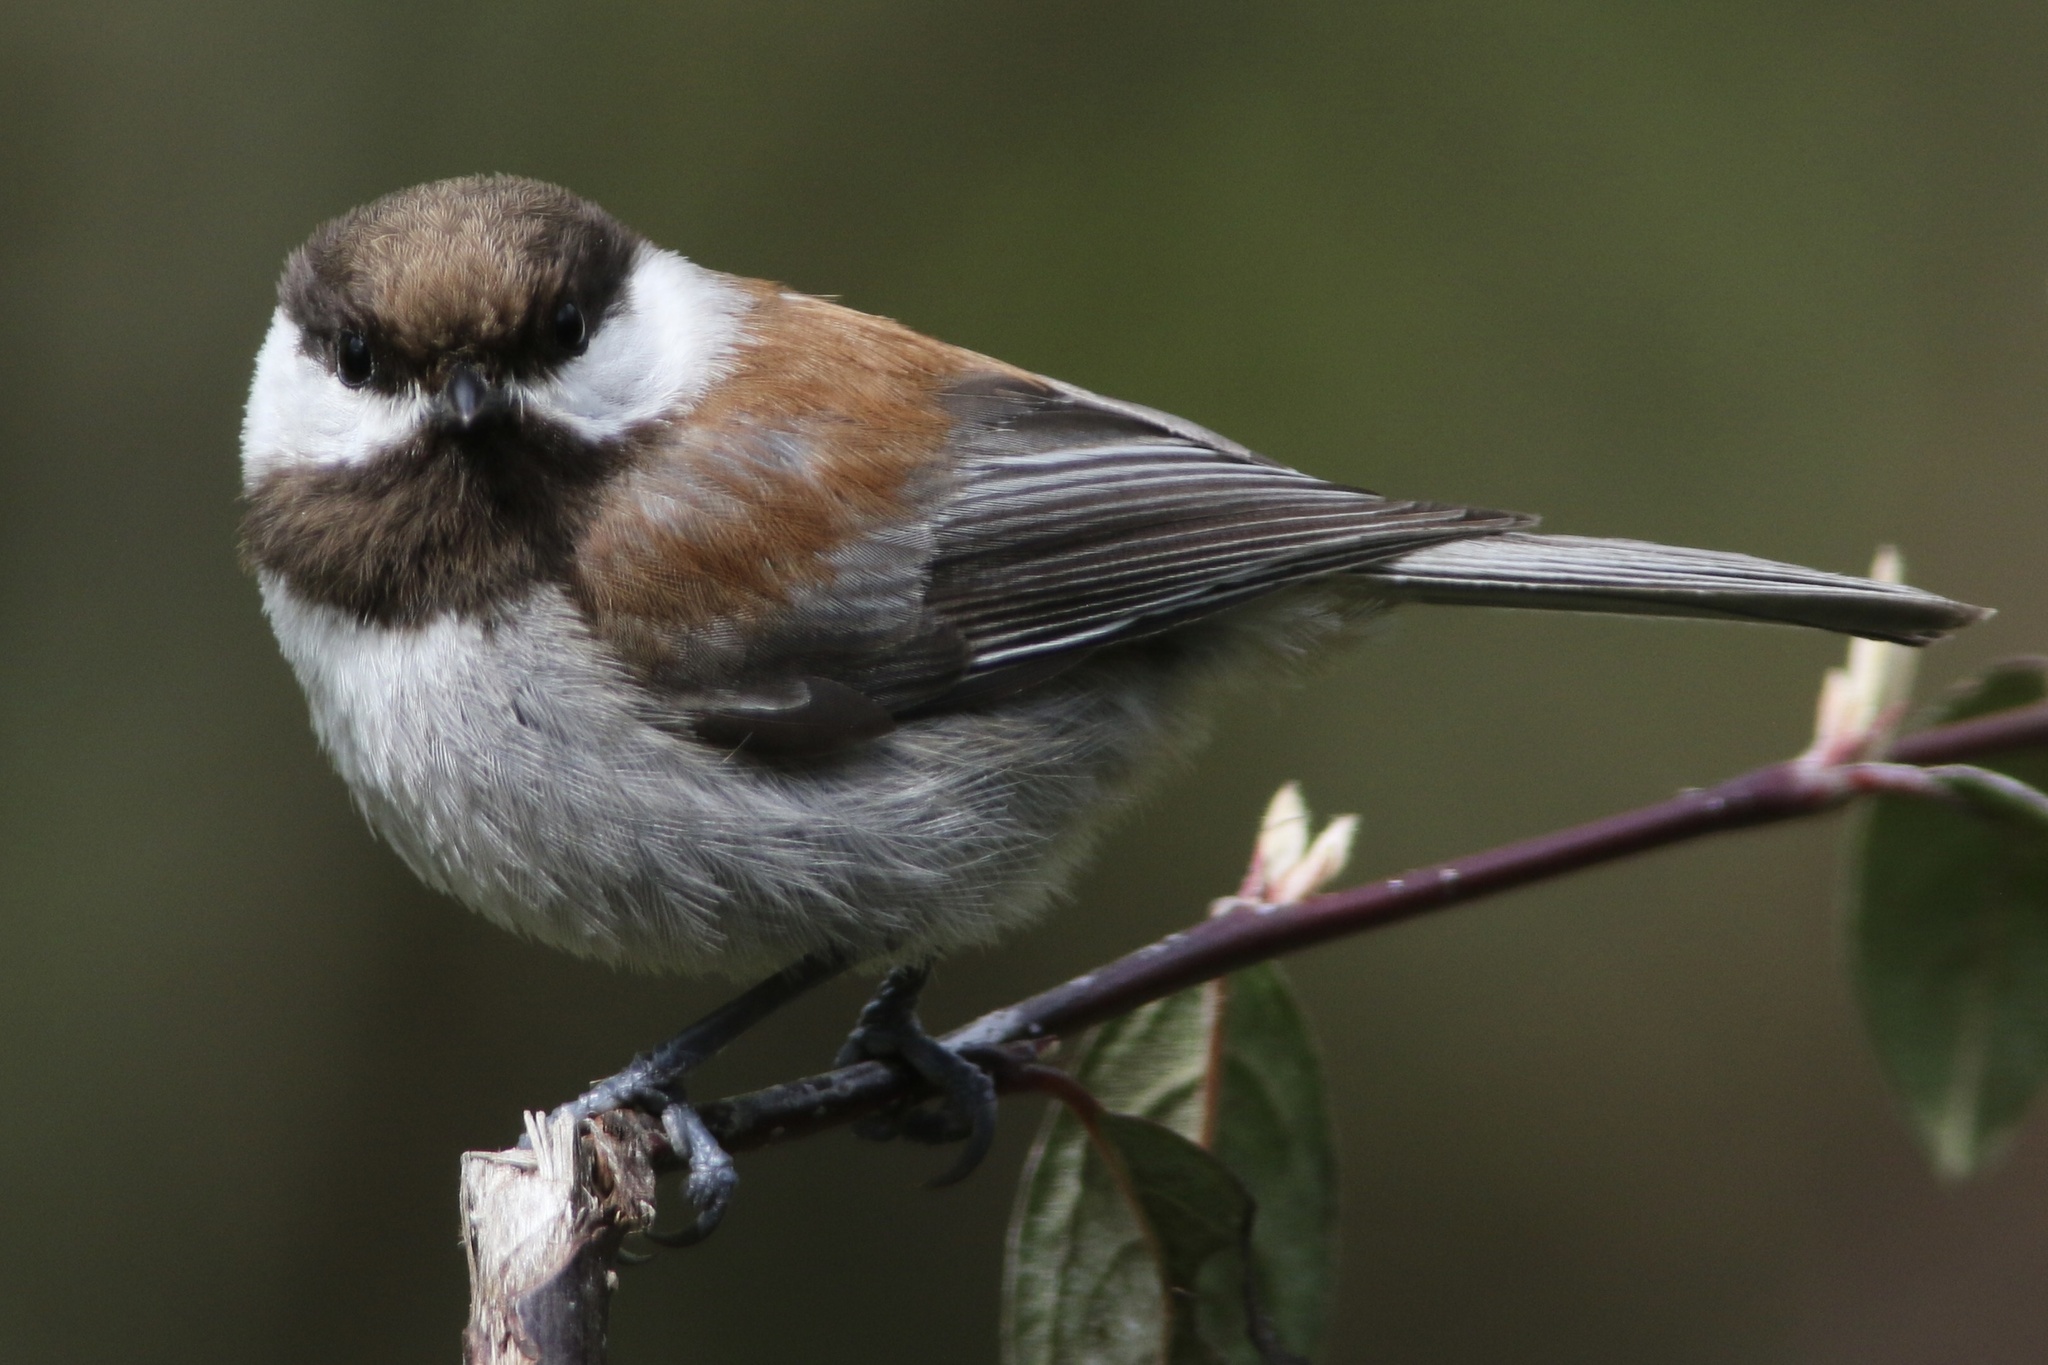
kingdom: Animalia
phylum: Chordata
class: Aves
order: Passeriformes
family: Paridae
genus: Poecile
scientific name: Poecile rufescens
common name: Chestnut-backed chickadee
